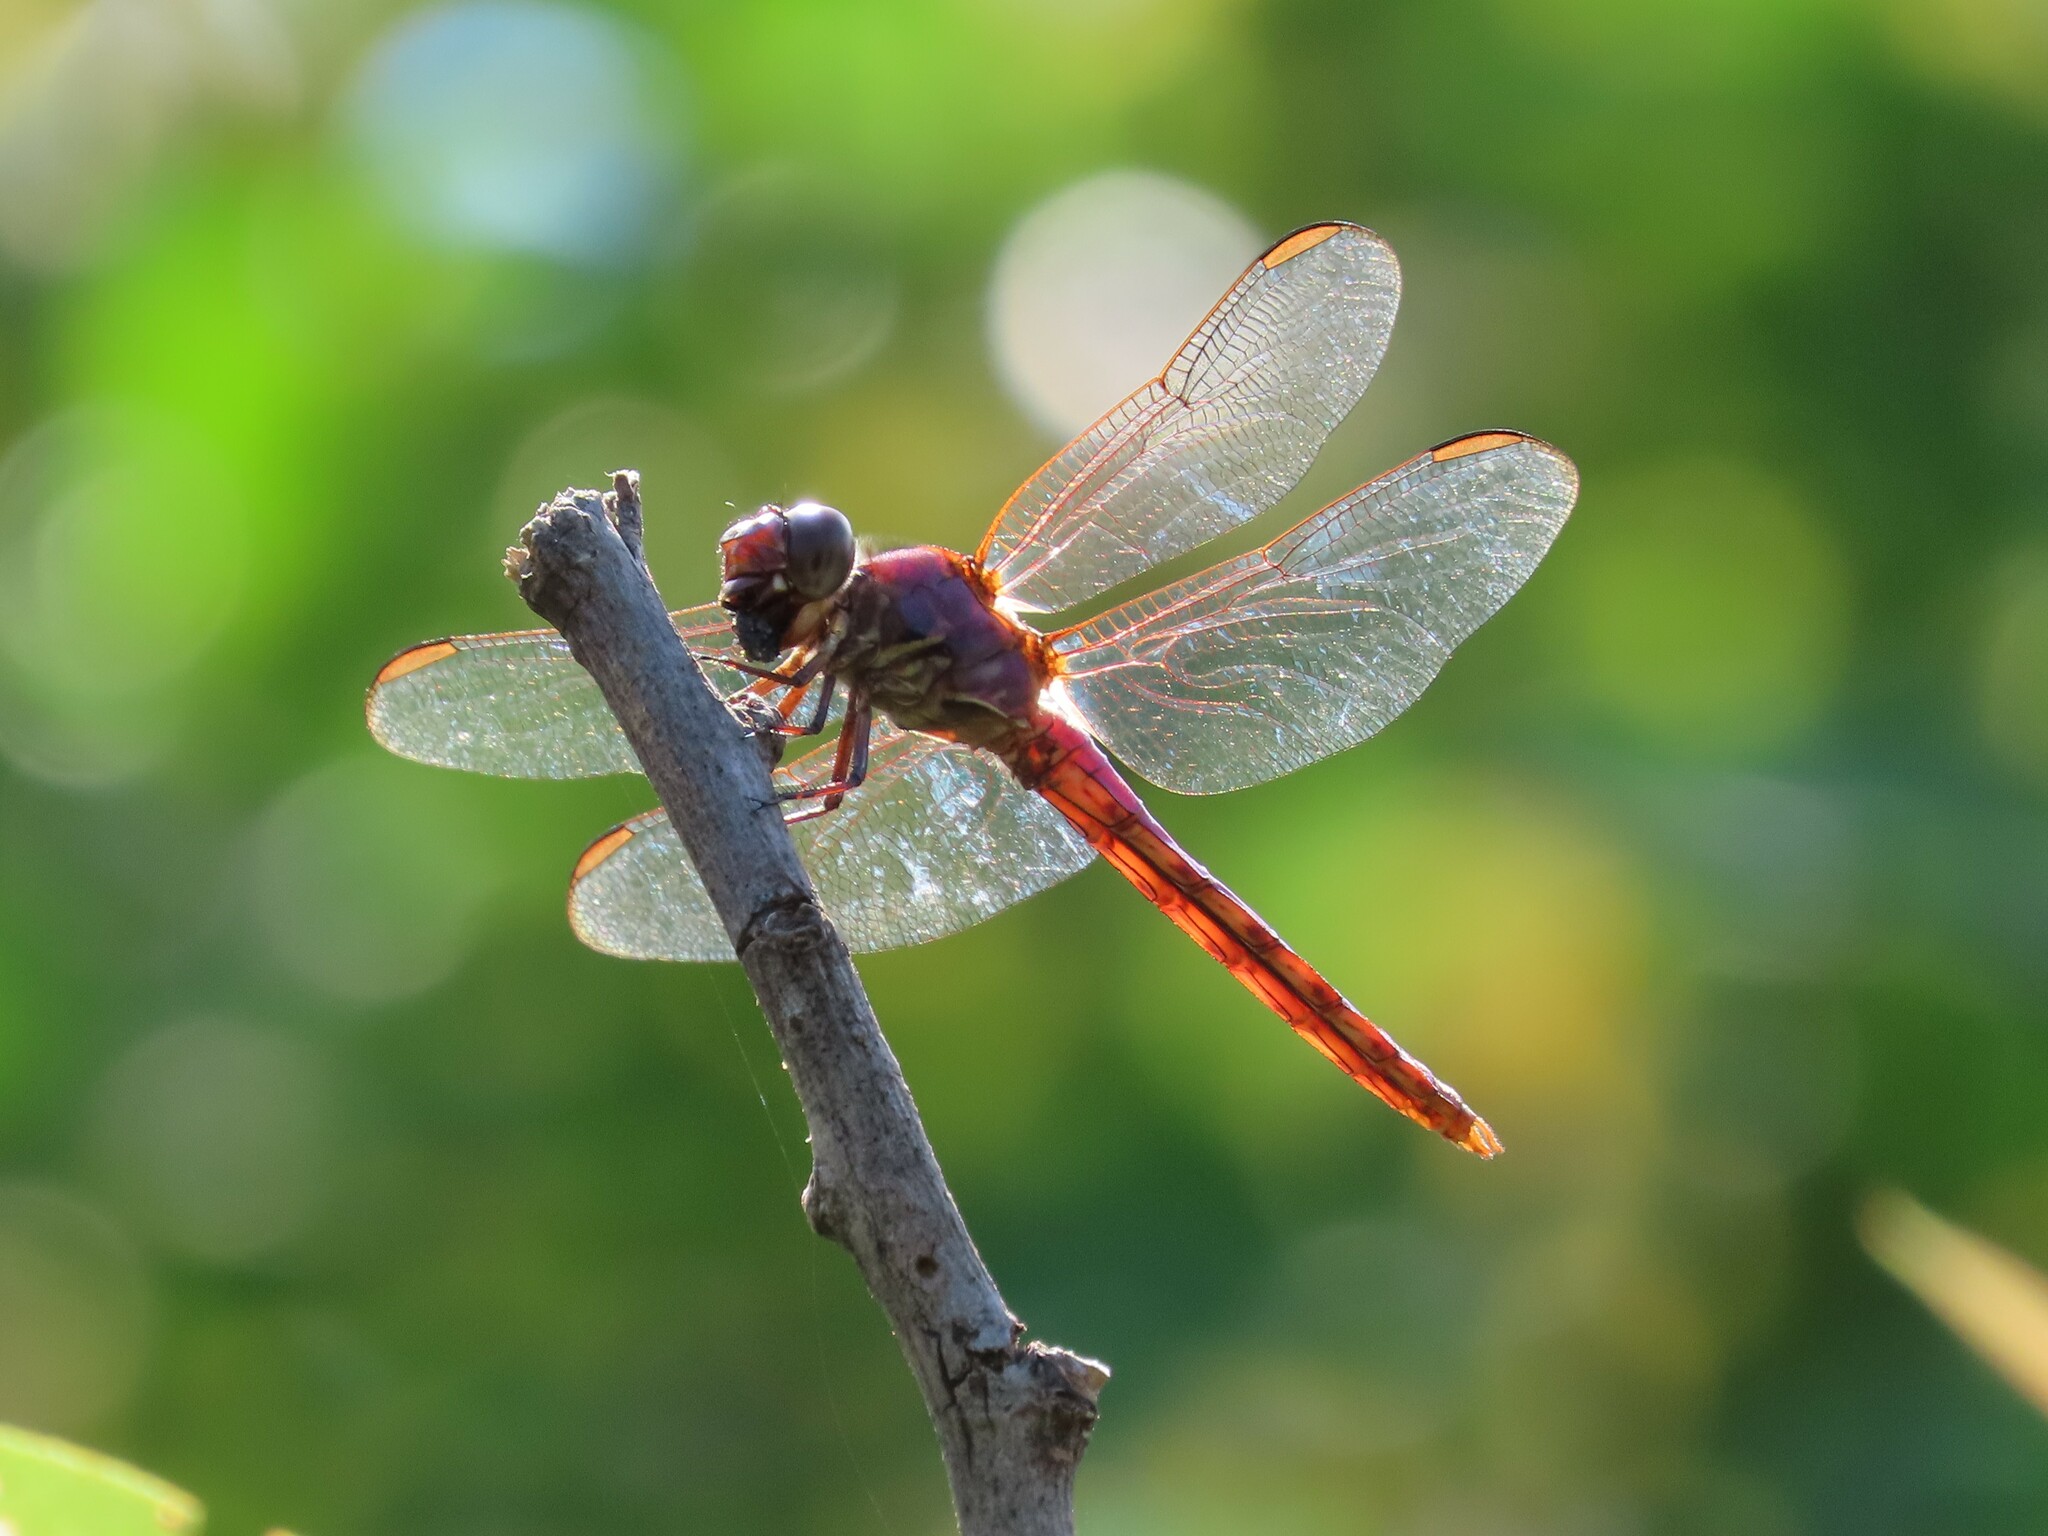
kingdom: Animalia
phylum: Arthropoda
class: Insecta
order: Odonata
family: Libellulidae
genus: Orthemis
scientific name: Orthemis ferruginea
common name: Roseate skimmer
